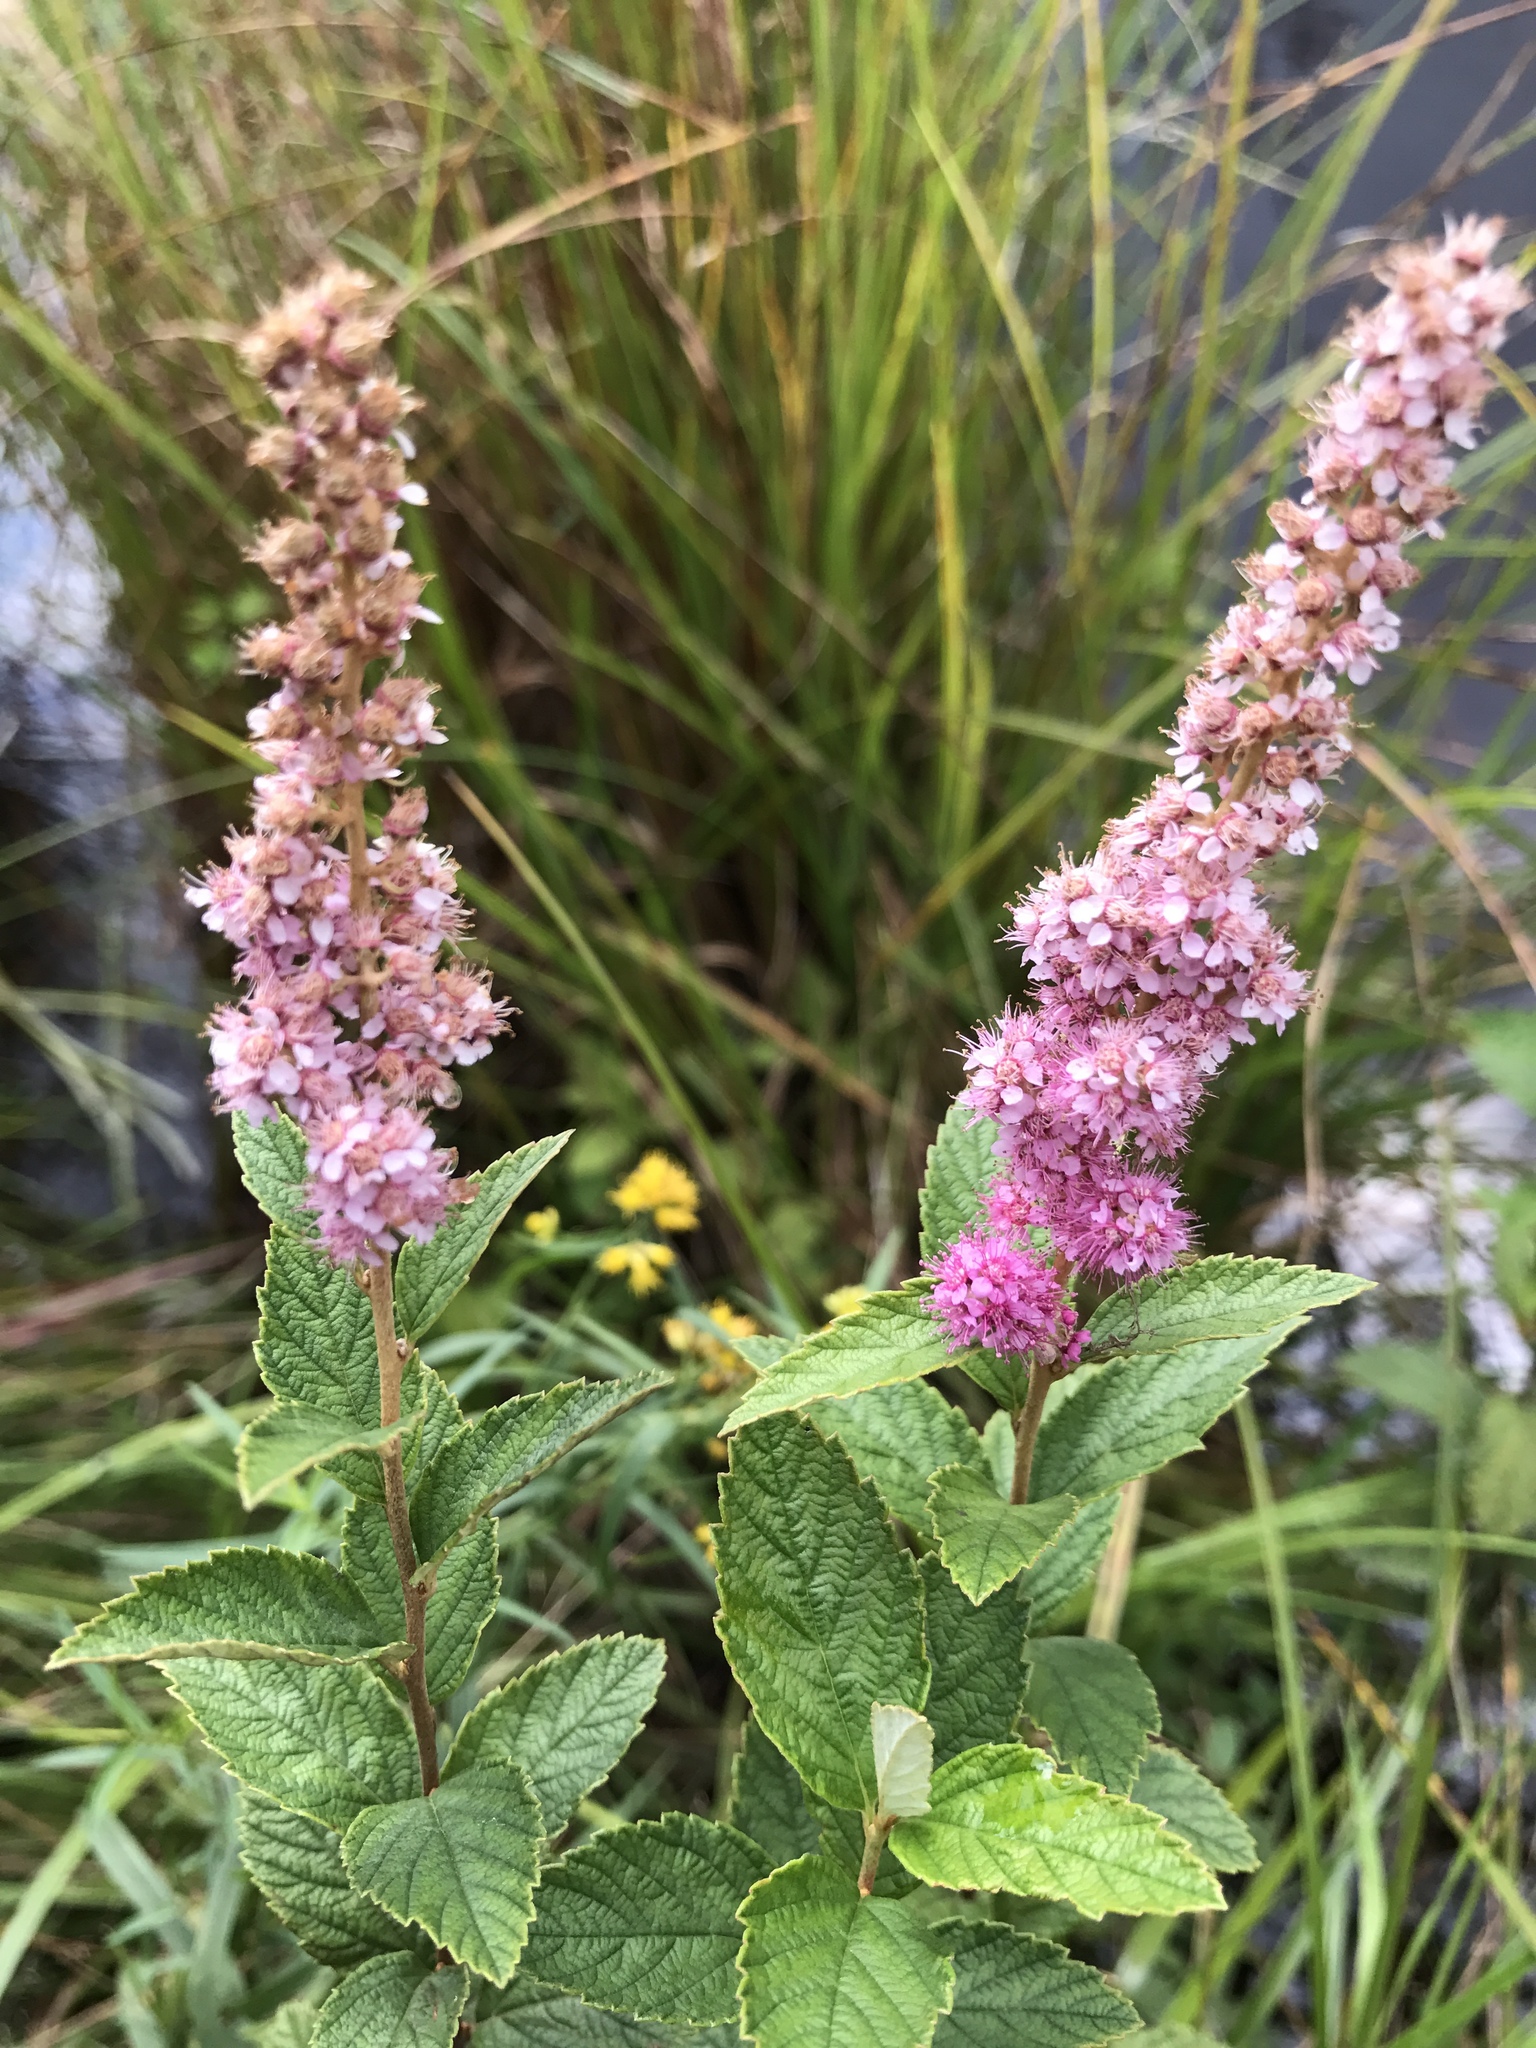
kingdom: Plantae
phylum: Tracheophyta
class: Magnoliopsida
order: Rosales
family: Rosaceae
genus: Spiraea
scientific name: Spiraea tomentosa
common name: Hardhack
